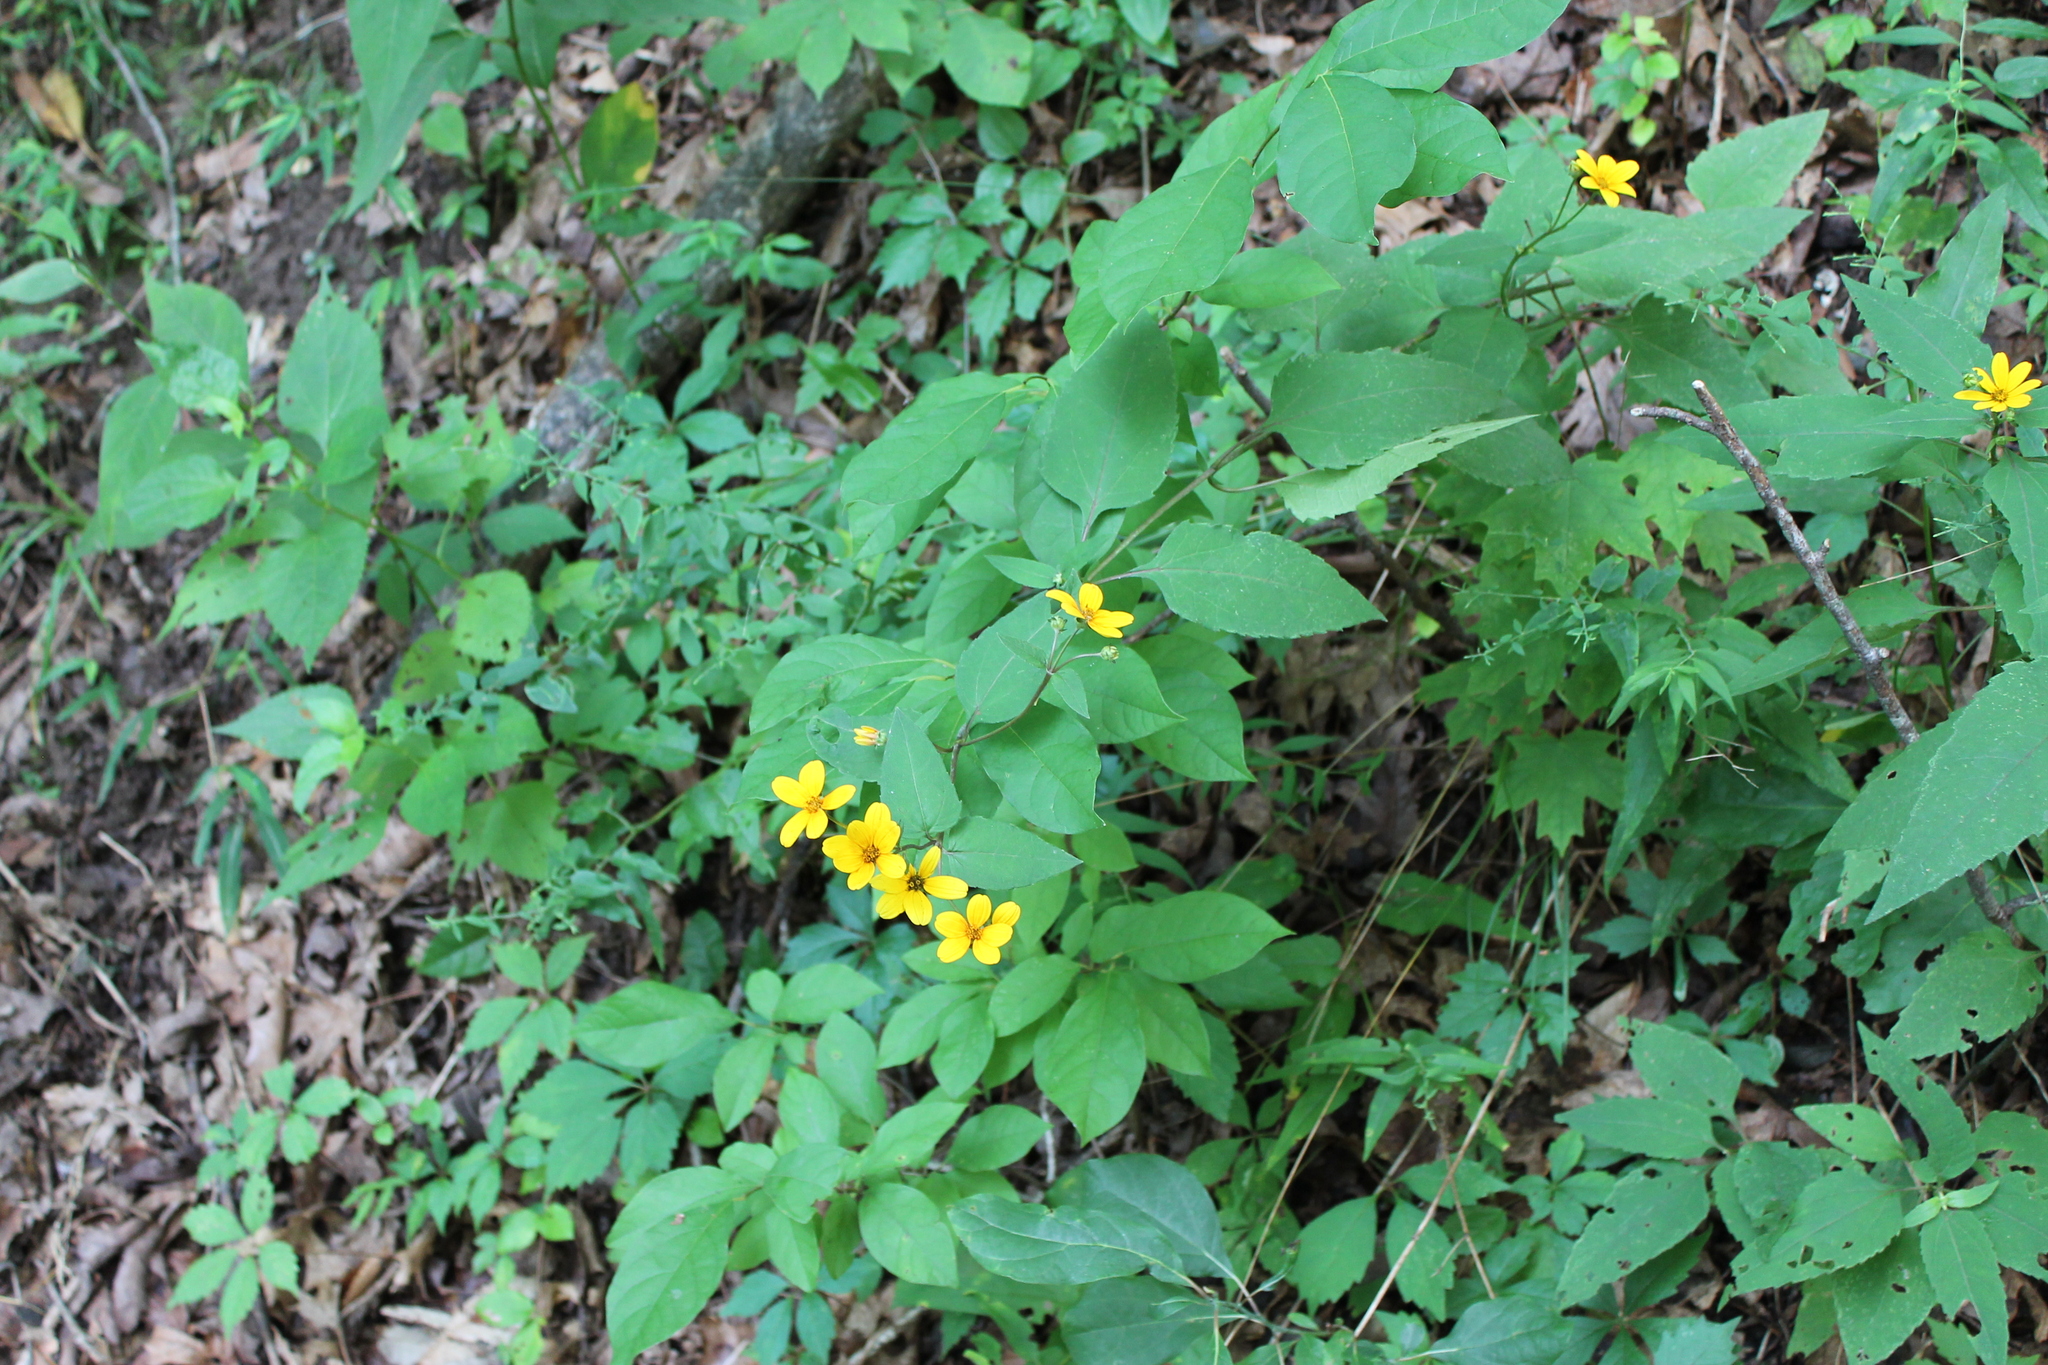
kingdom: Plantae
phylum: Tracheophyta
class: Magnoliopsida
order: Asterales
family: Asteraceae
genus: Helianthus
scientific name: Helianthus microcephalus
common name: Woodland sunflower
